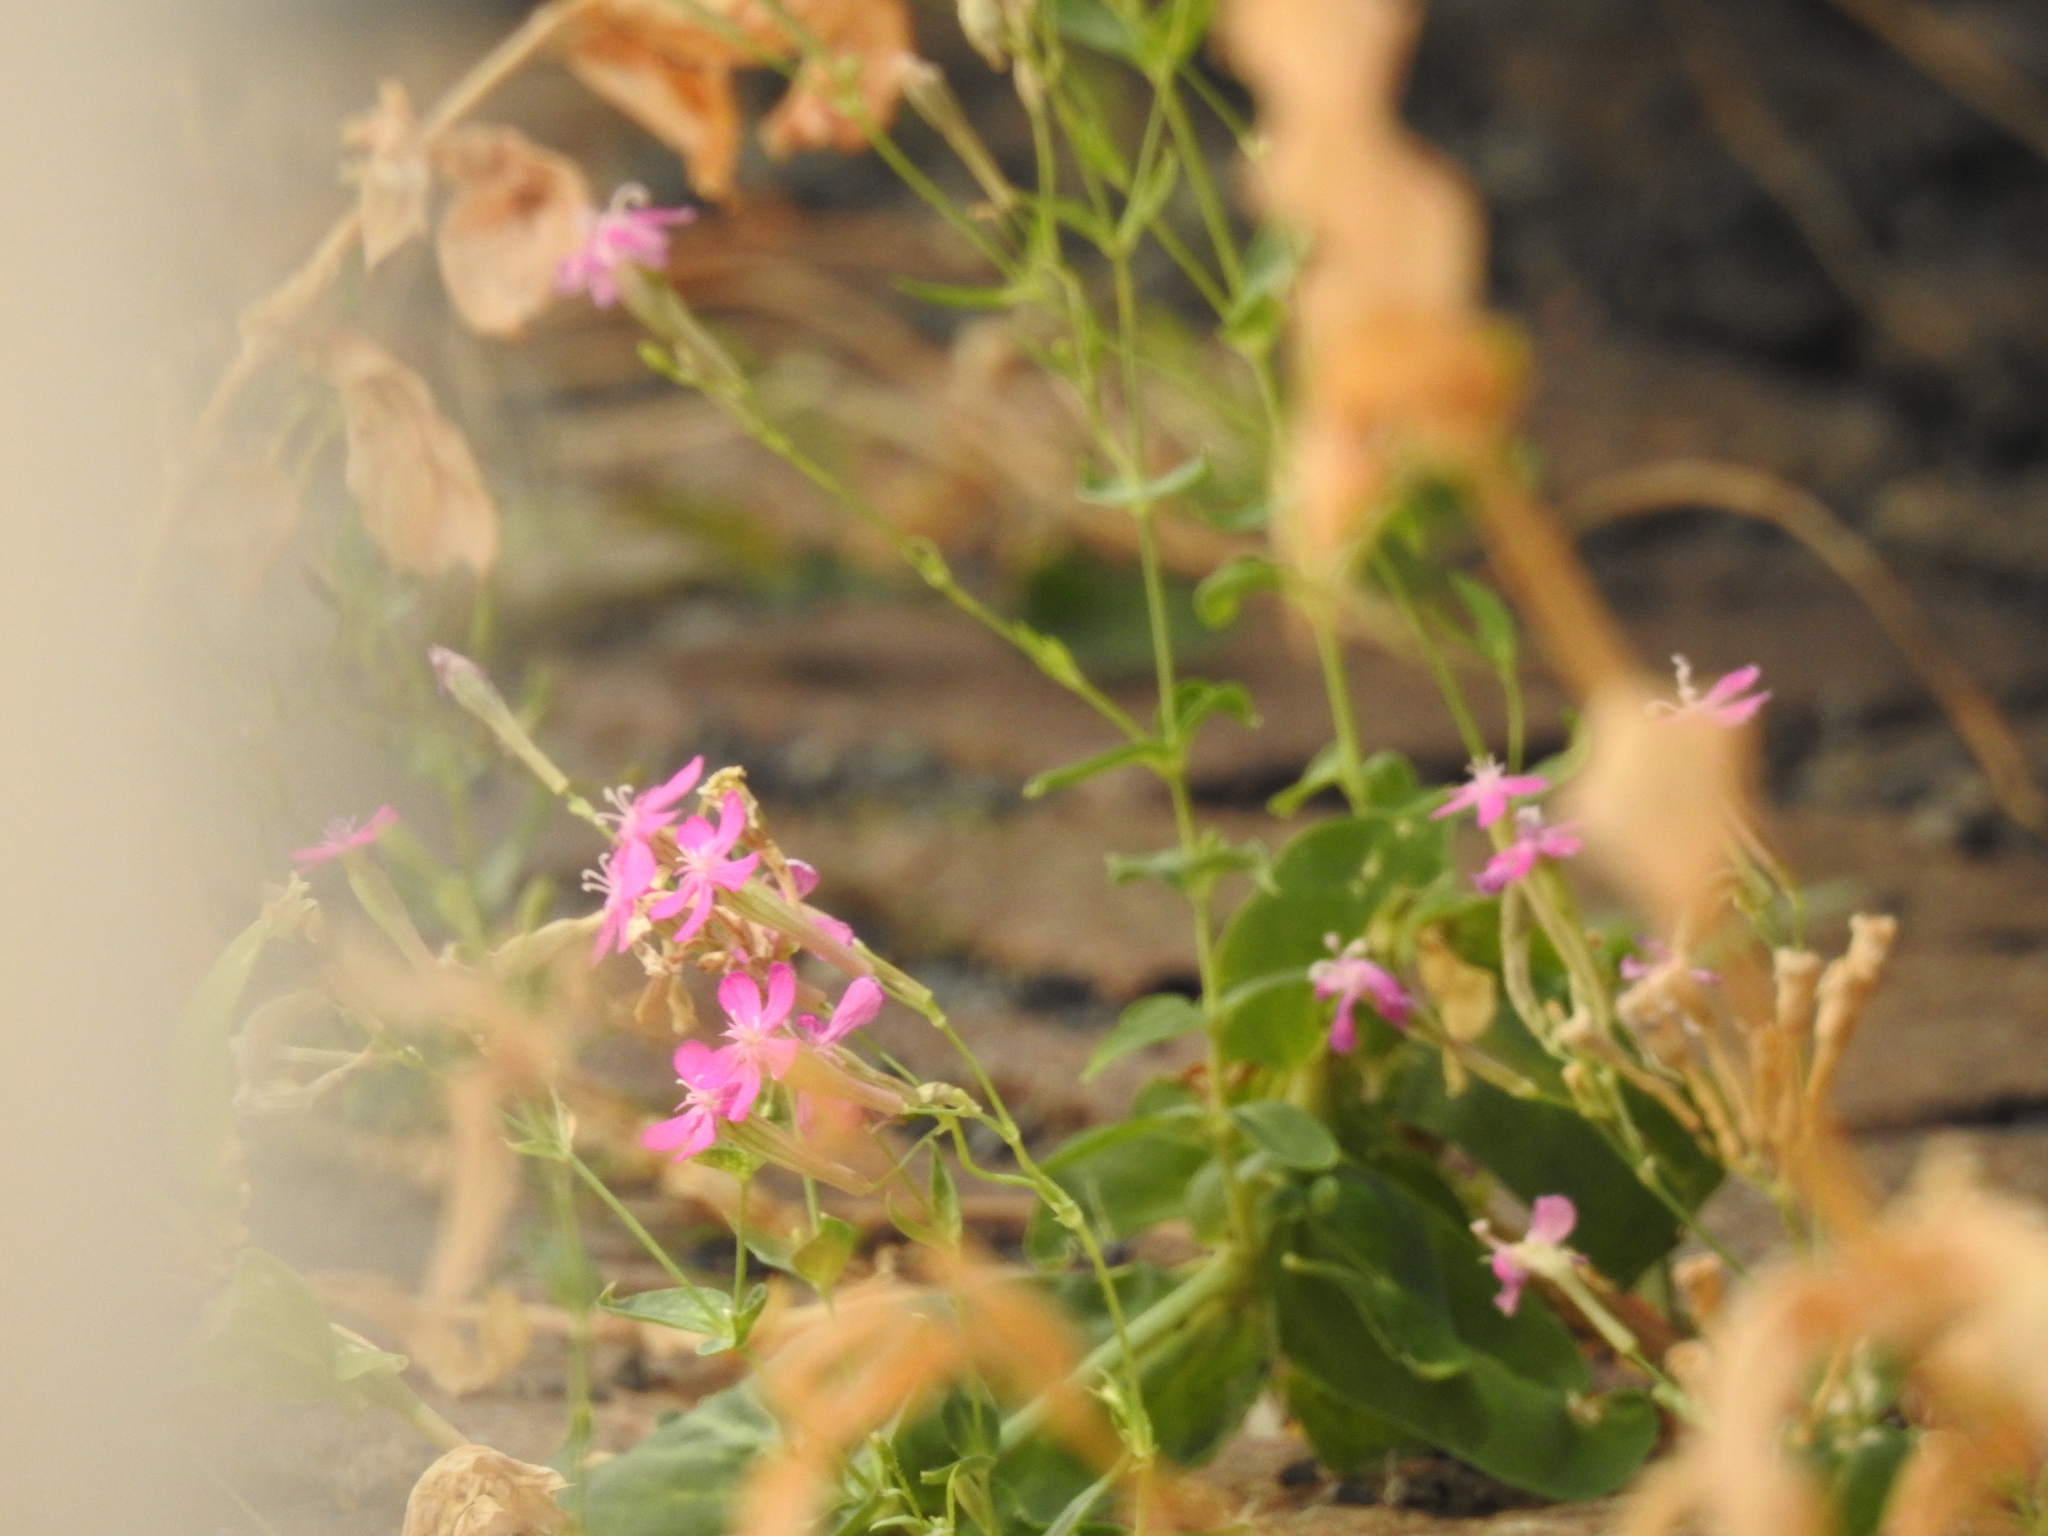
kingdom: Plantae
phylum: Tracheophyta
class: Magnoliopsida
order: Caryophyllales
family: Caryophyllaceae
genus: Atocion
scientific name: Atocion armeria
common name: Sweet william catchfly
